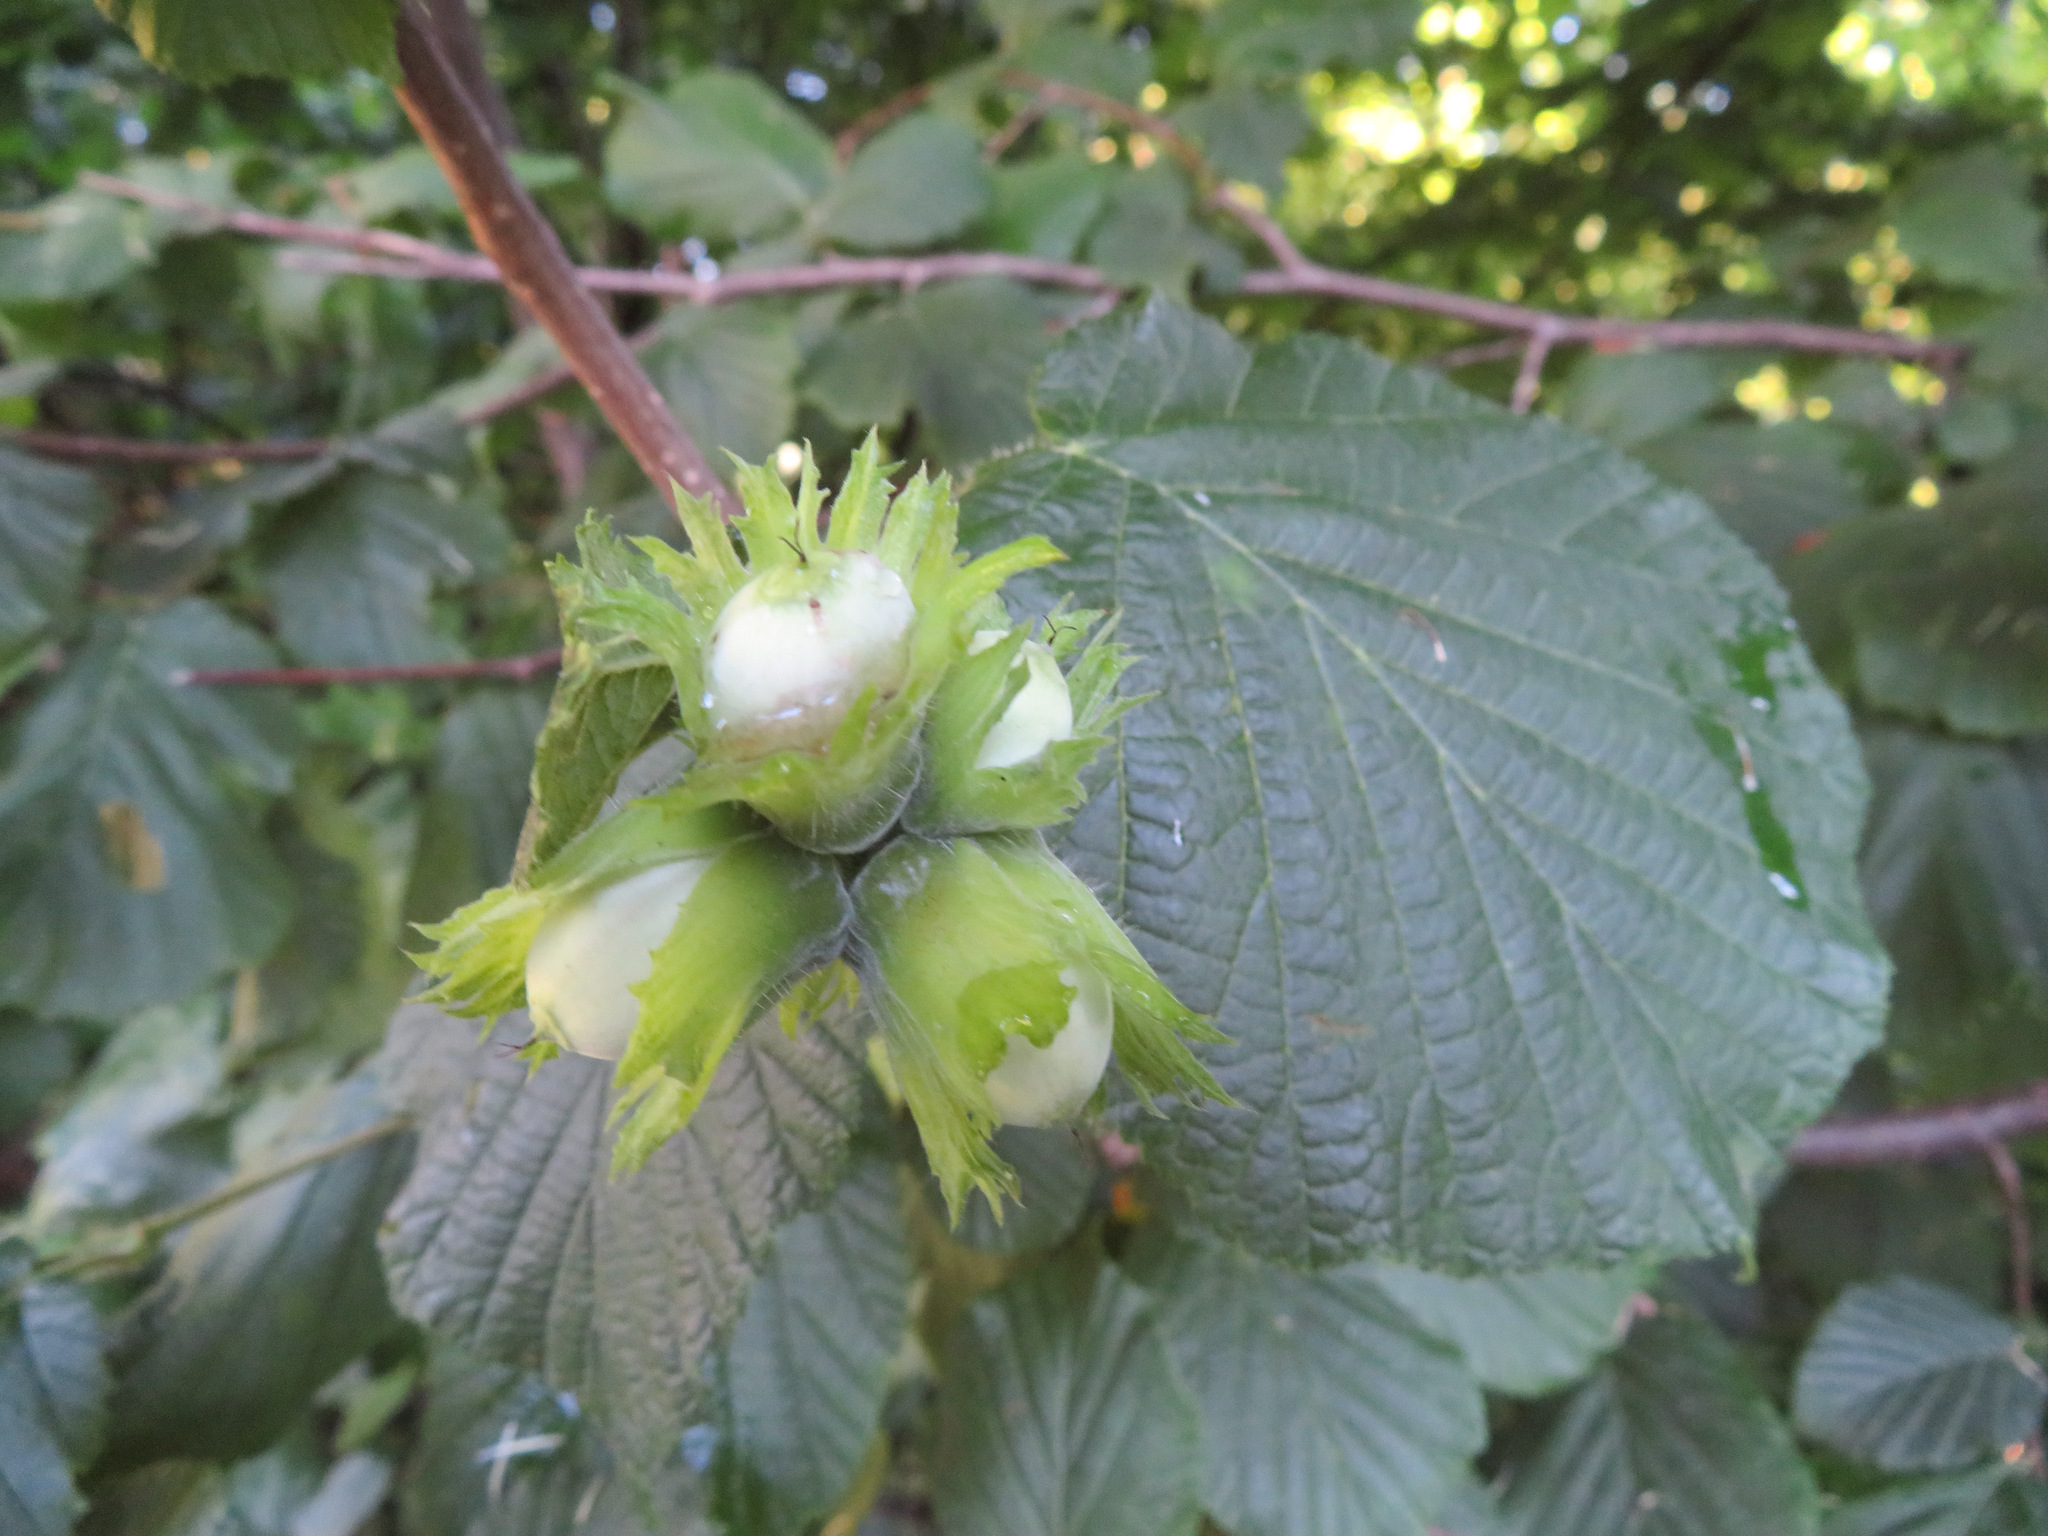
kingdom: Plantae
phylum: Tracheophyta
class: Magnoliopsida
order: Fagales
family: Betulaceae
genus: Corylus
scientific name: Corylus avellana
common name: European hazel
